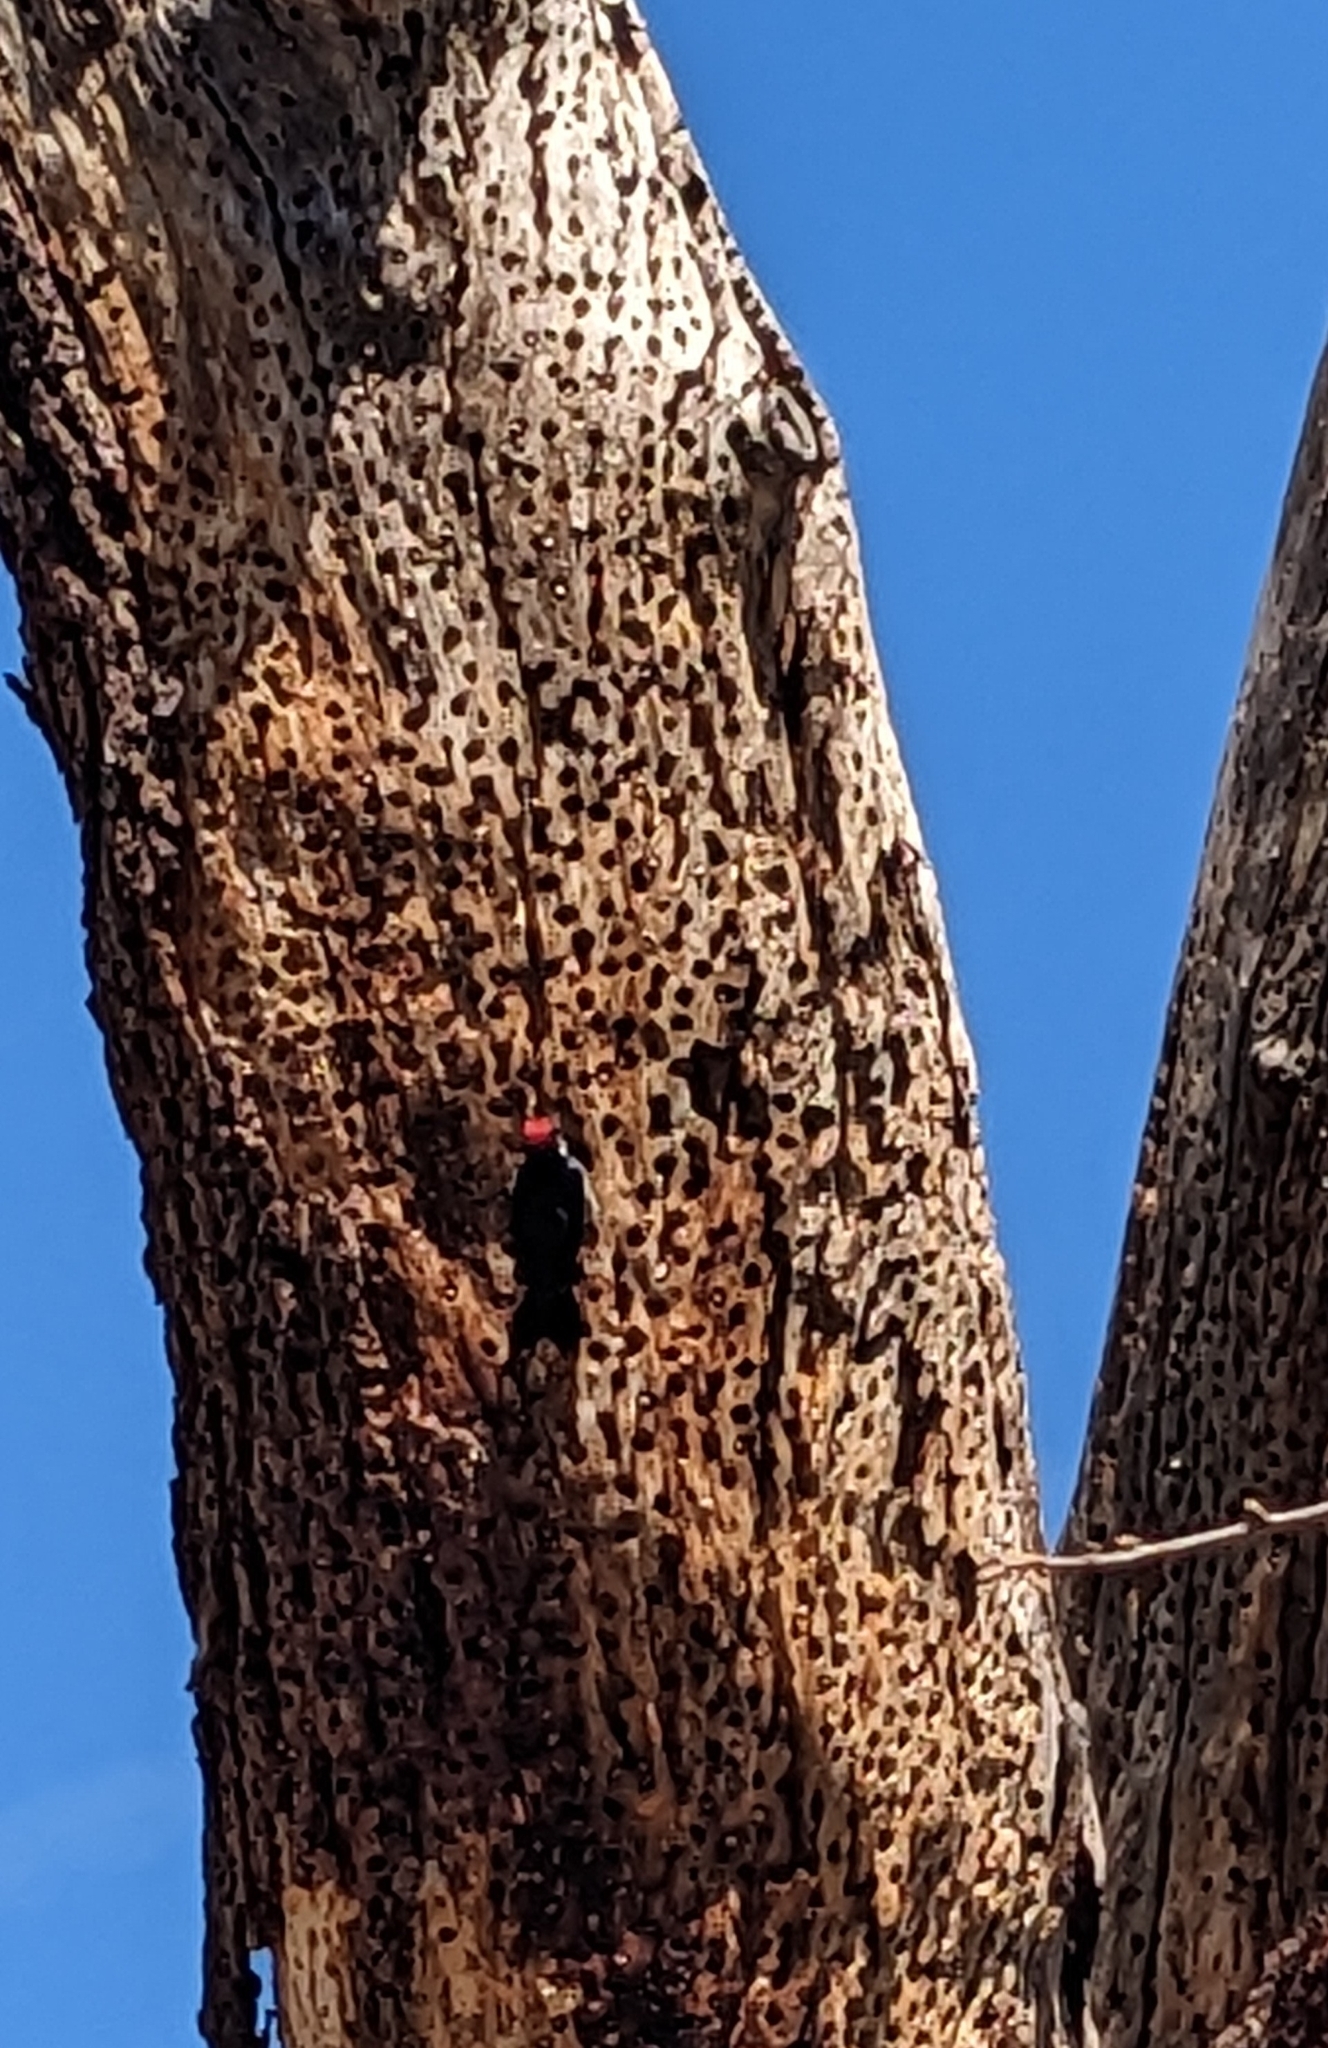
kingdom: Animalia
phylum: Chordata
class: Aves
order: Piciformes
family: Picidae
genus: Melanerpes
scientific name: Melanerpes formicivorus
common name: Acorn woodpecker
